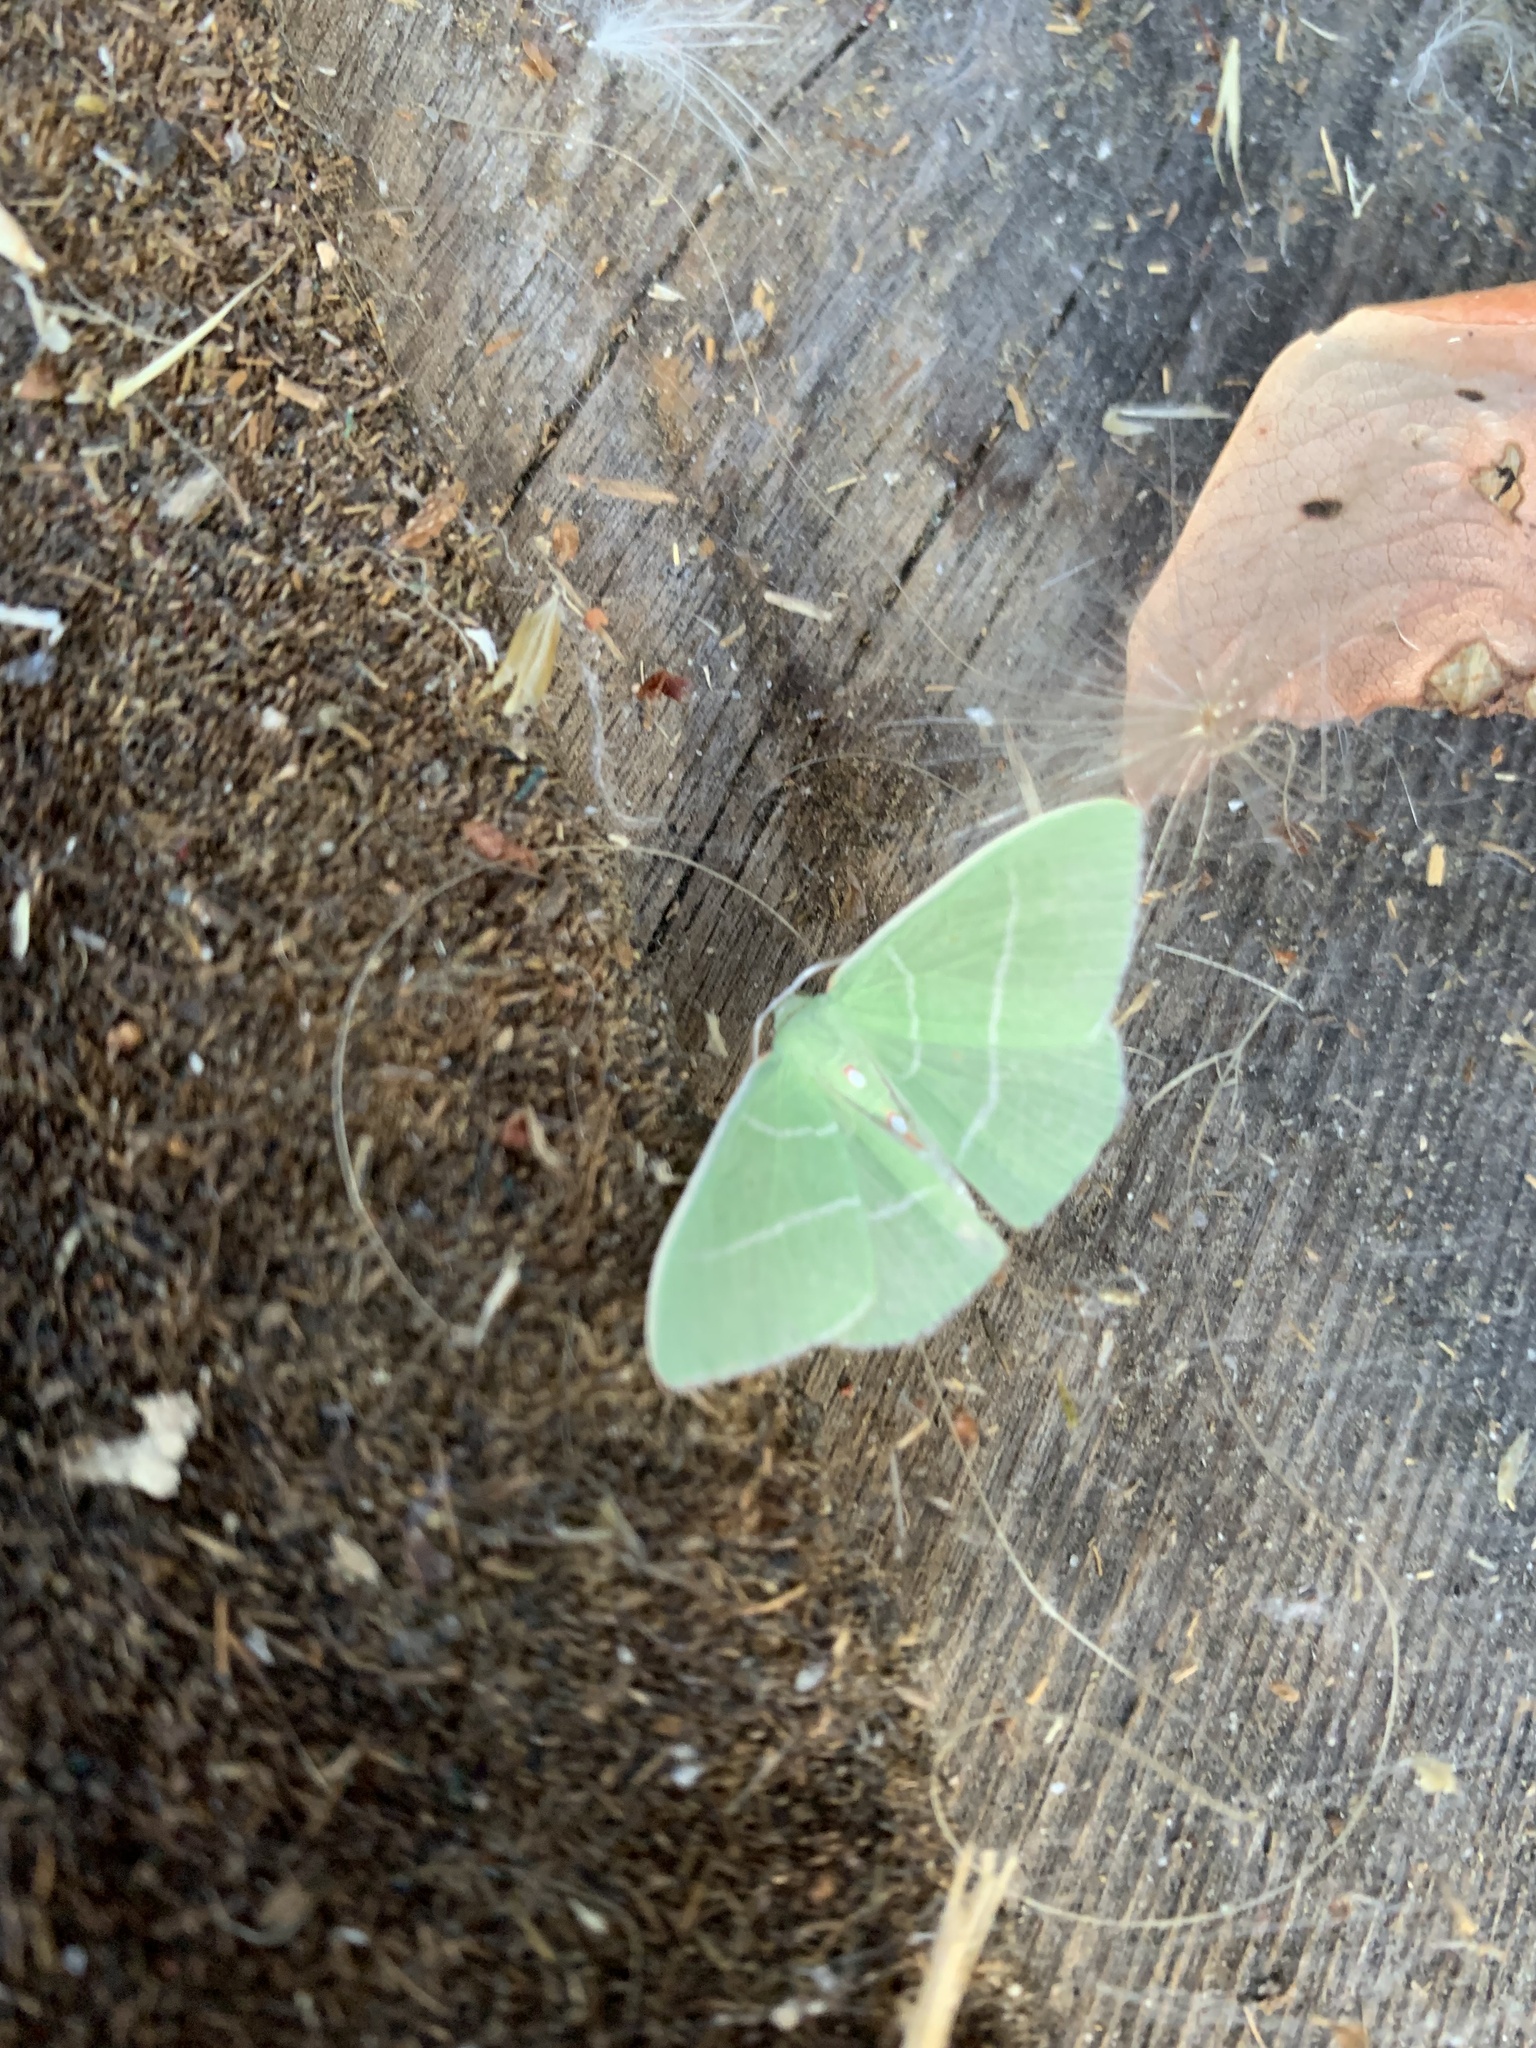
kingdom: Animalia
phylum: Arthropoda
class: Insecta
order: Lepidoptera
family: Geometridae
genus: Nemoria
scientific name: Nemoria darwiniata
